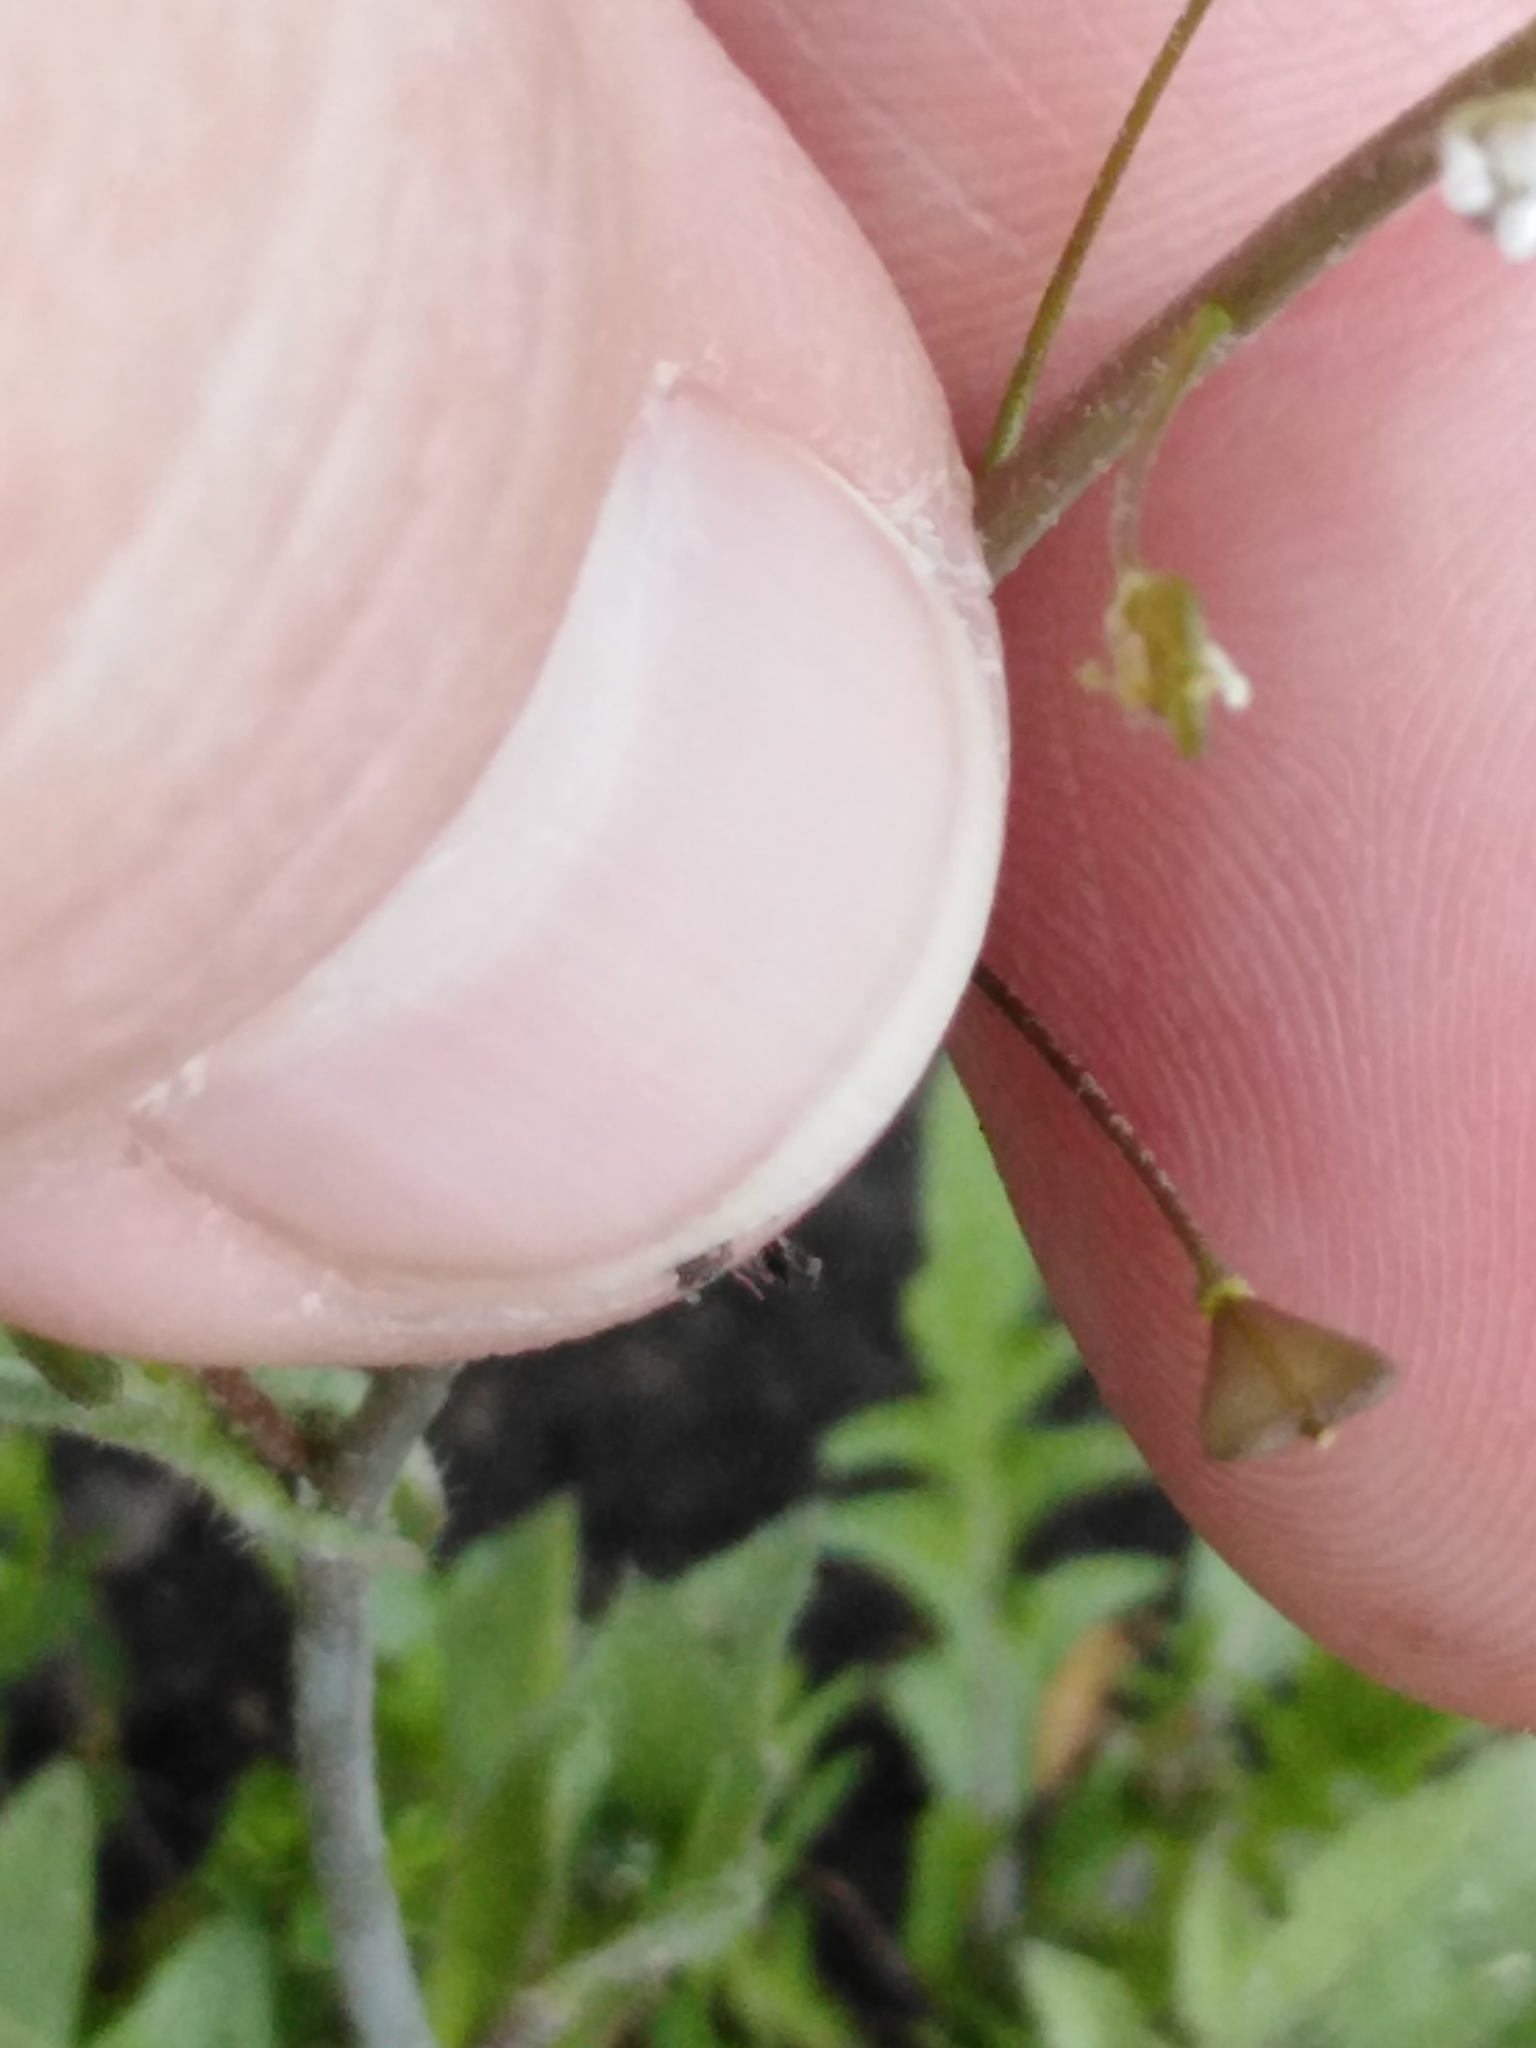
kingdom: Plantae
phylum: Tracheophyta
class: Magnoliopsida
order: Brassicales
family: Brassicaceae
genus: Capsella
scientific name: Capsella bursa-pastoris
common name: Shepherd's purse
